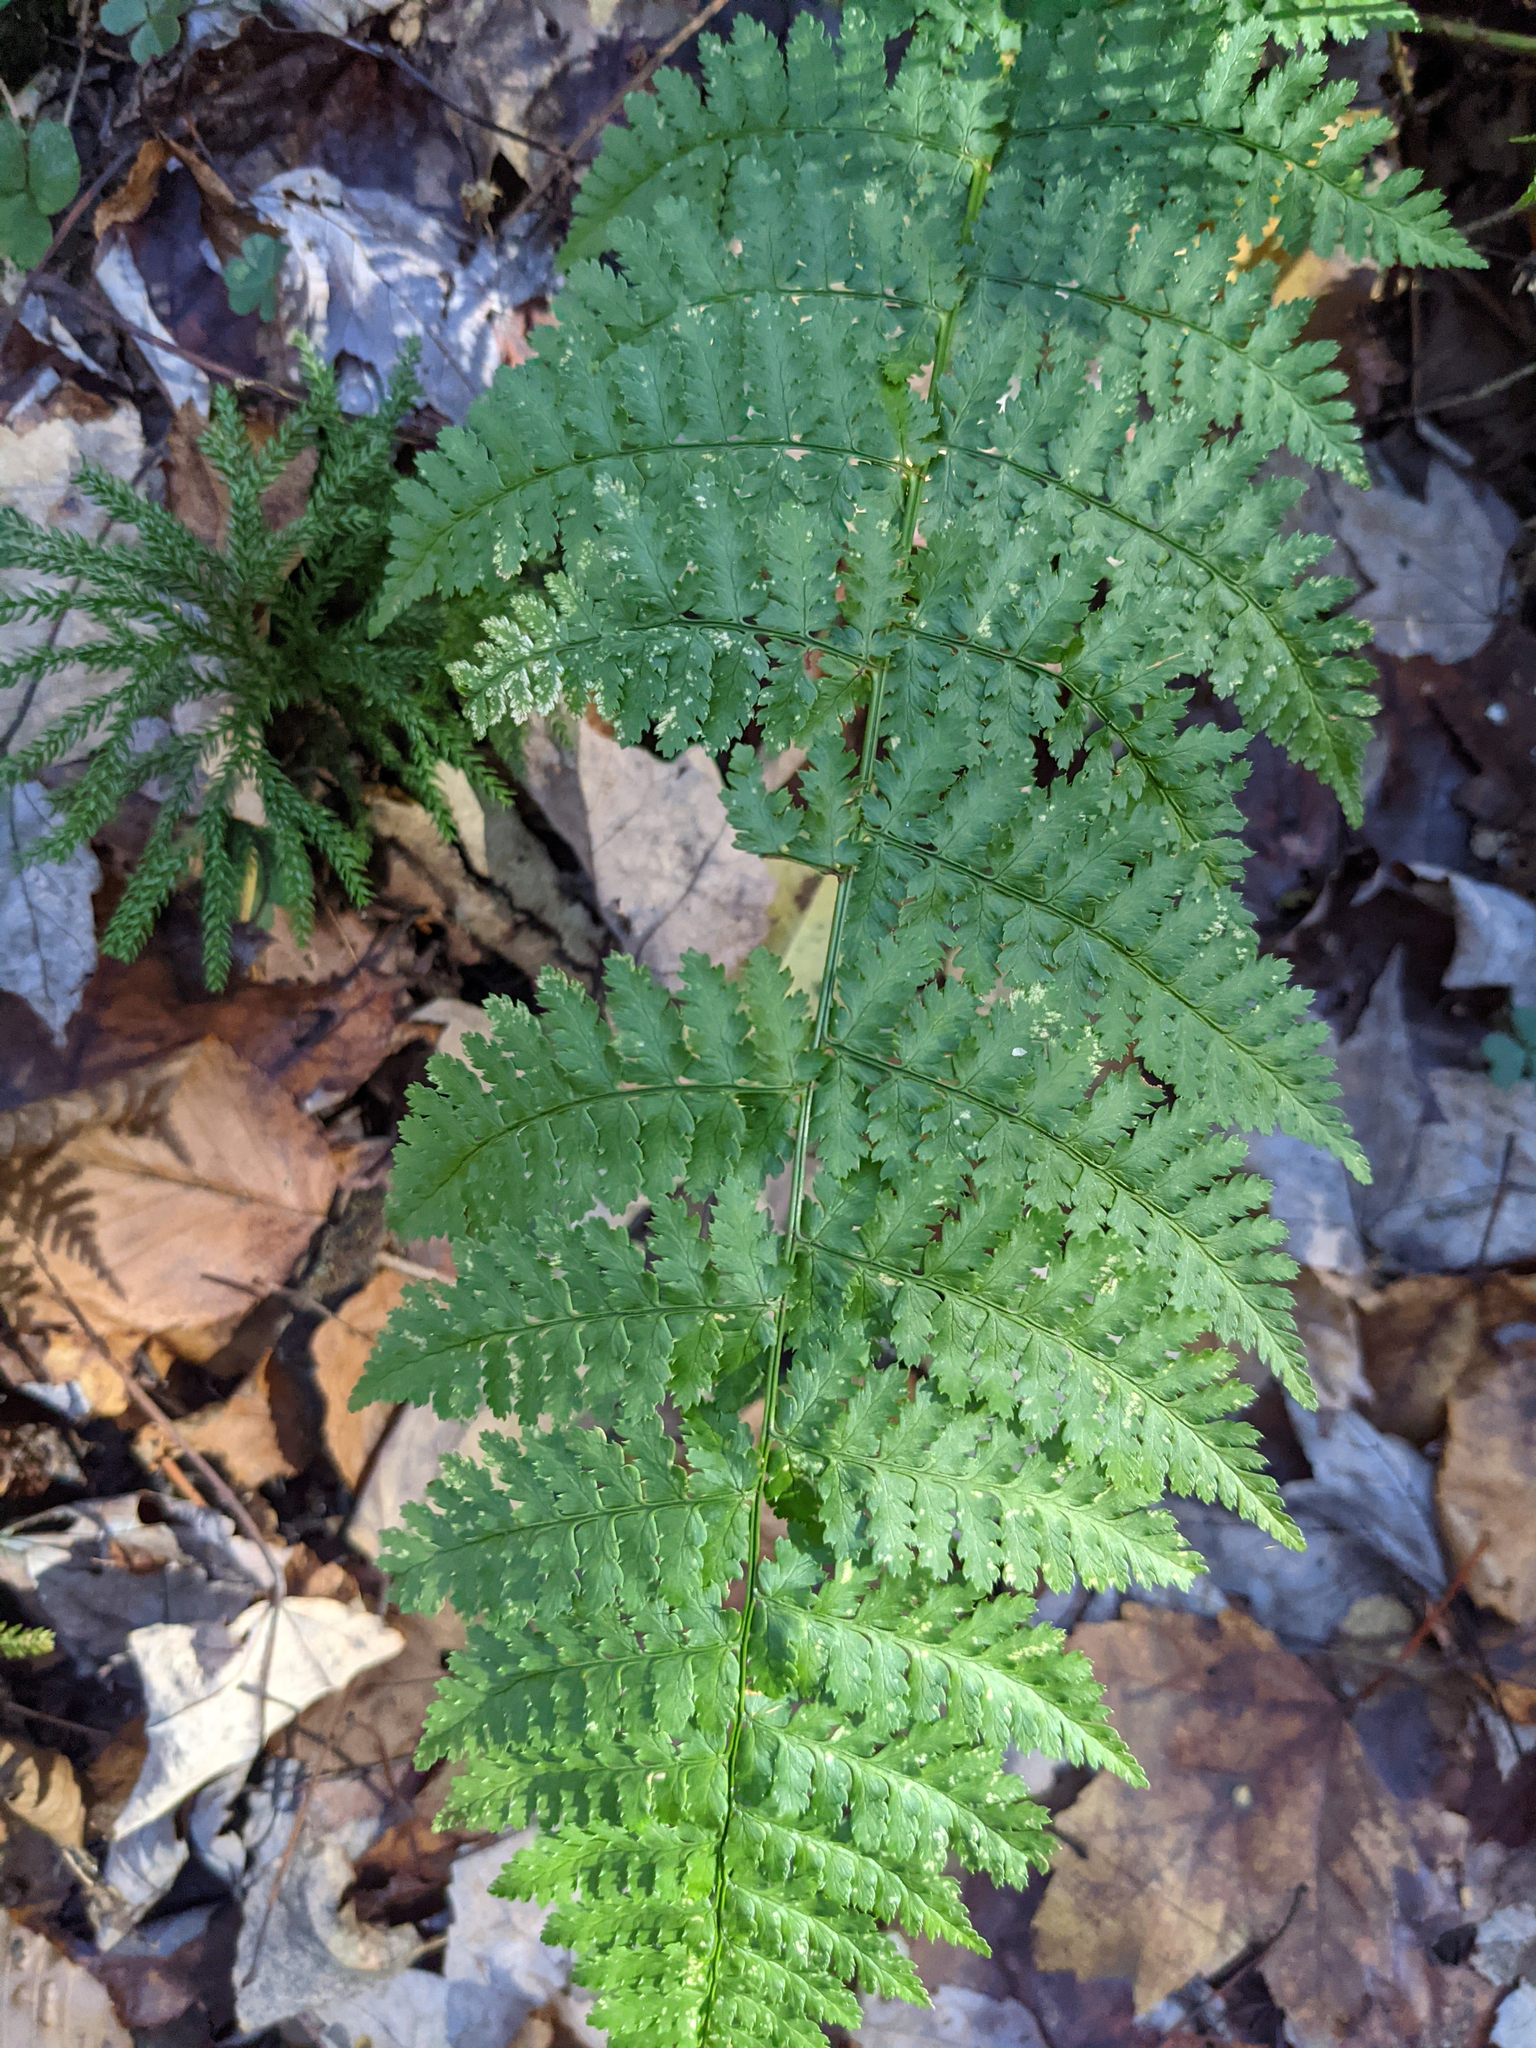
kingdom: Plantae
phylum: Tracheophyta
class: Polypodiopsida
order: Polypodiales
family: Dryopteridaceae
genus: Dryopteris
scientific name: Dryopteris intermedia
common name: Evergreen wood fern
